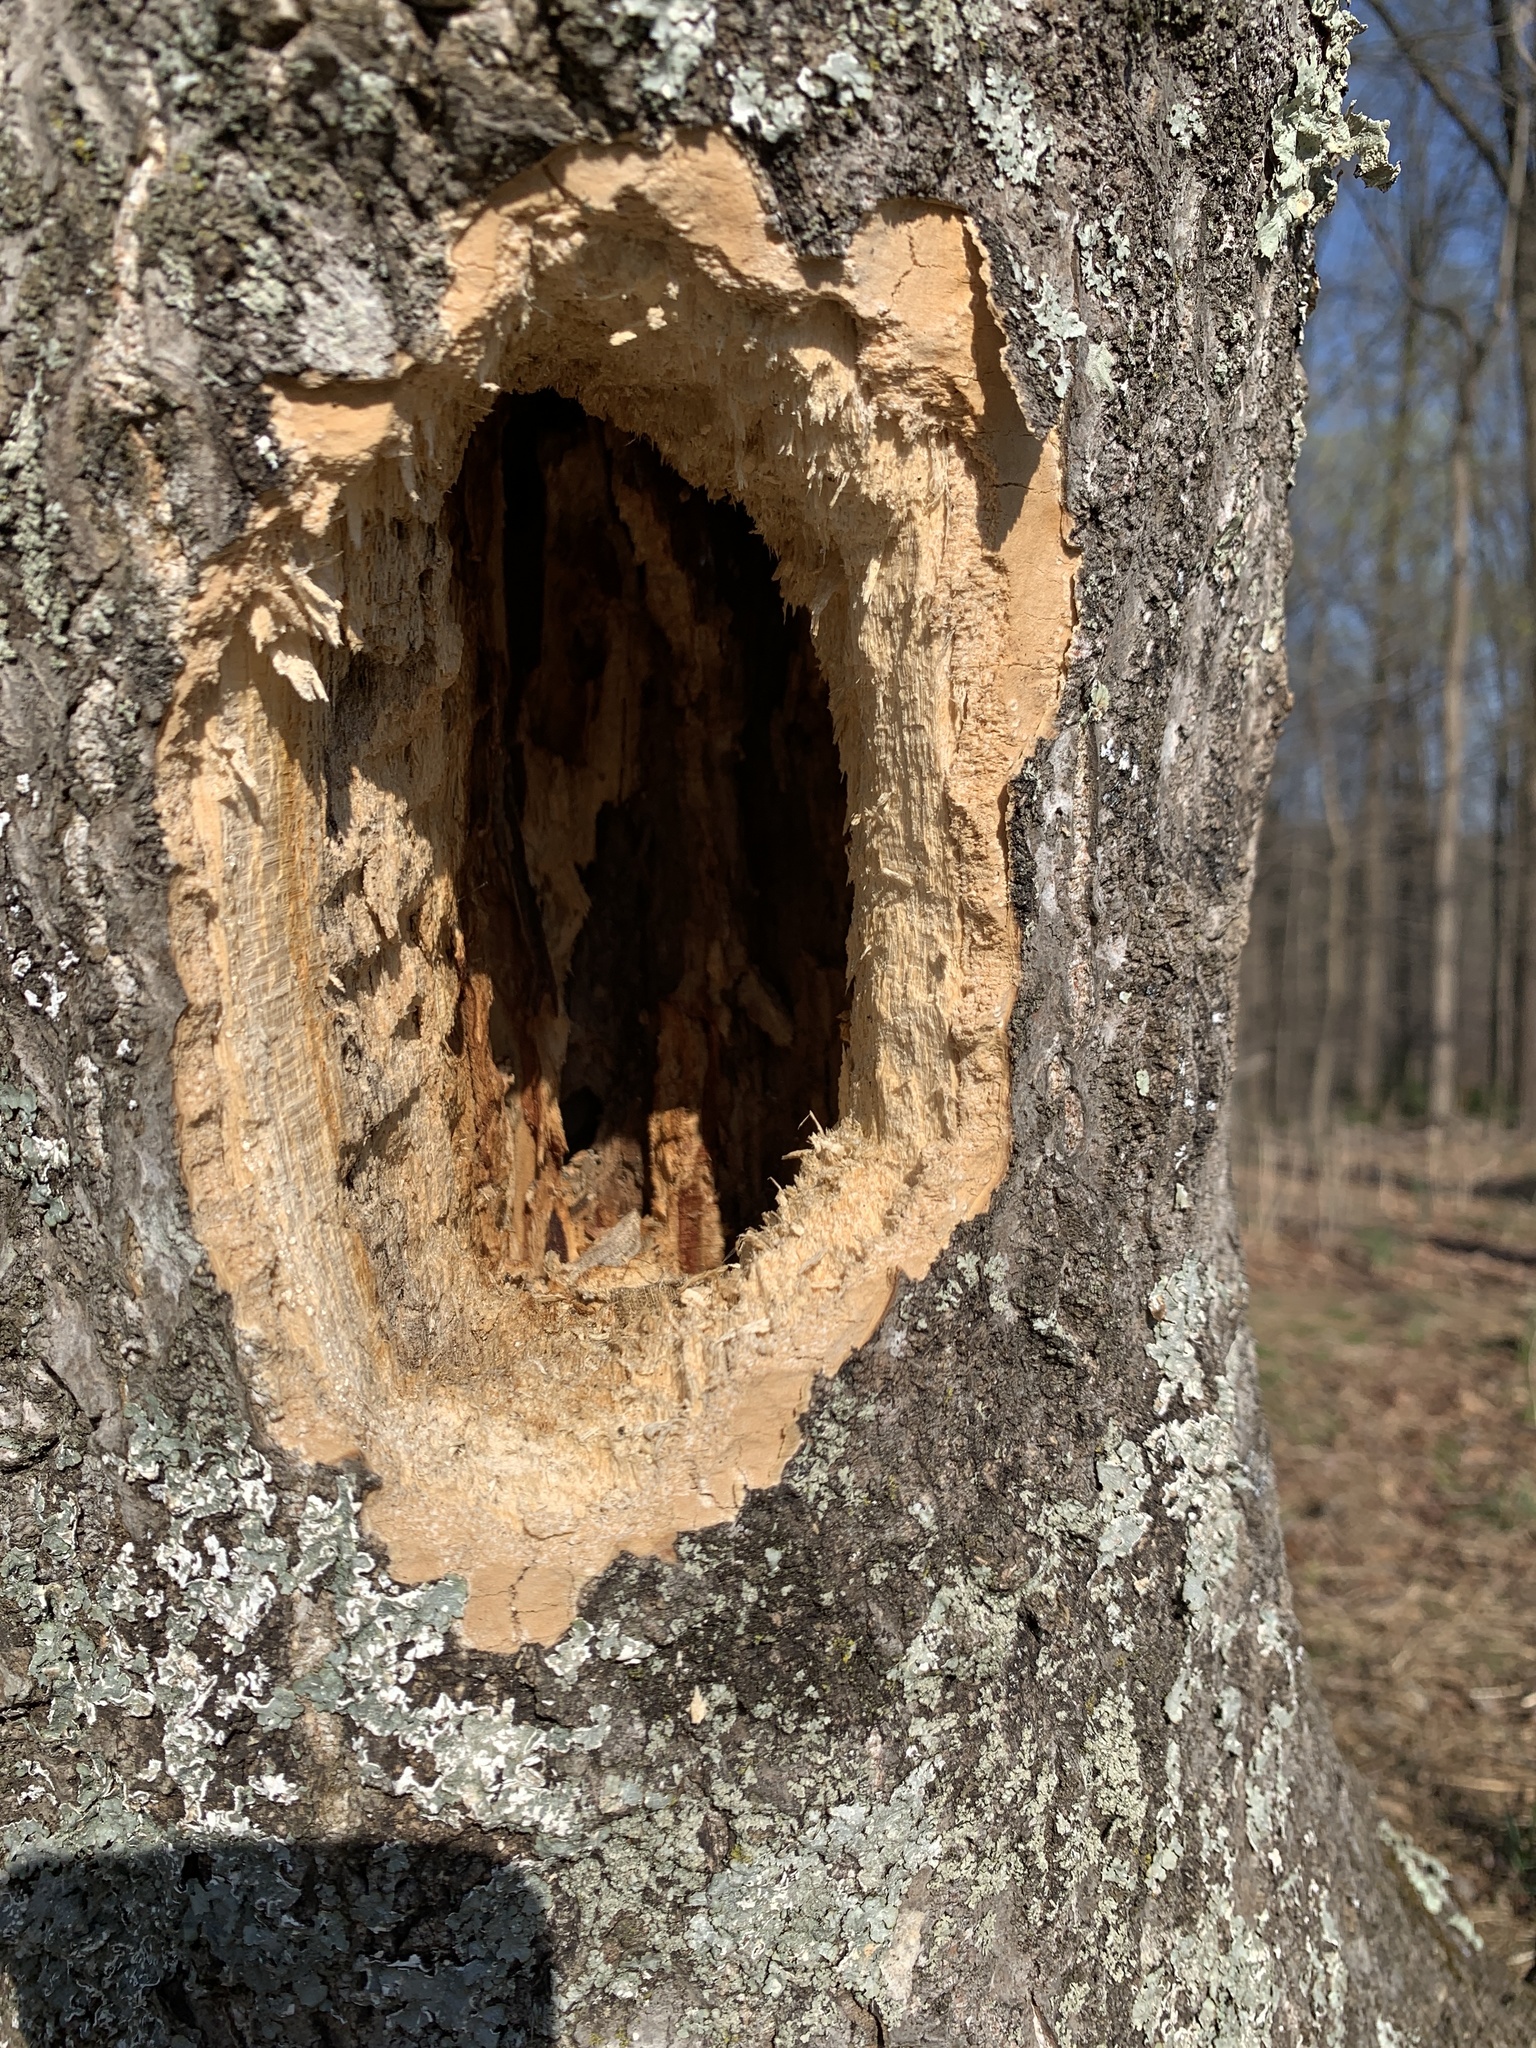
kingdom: Animalia
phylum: Chordata
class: Aves
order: Piciformes
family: Picidae
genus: Dryocopus
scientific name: Dryocopus pileatus
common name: Pileated woodpecker
